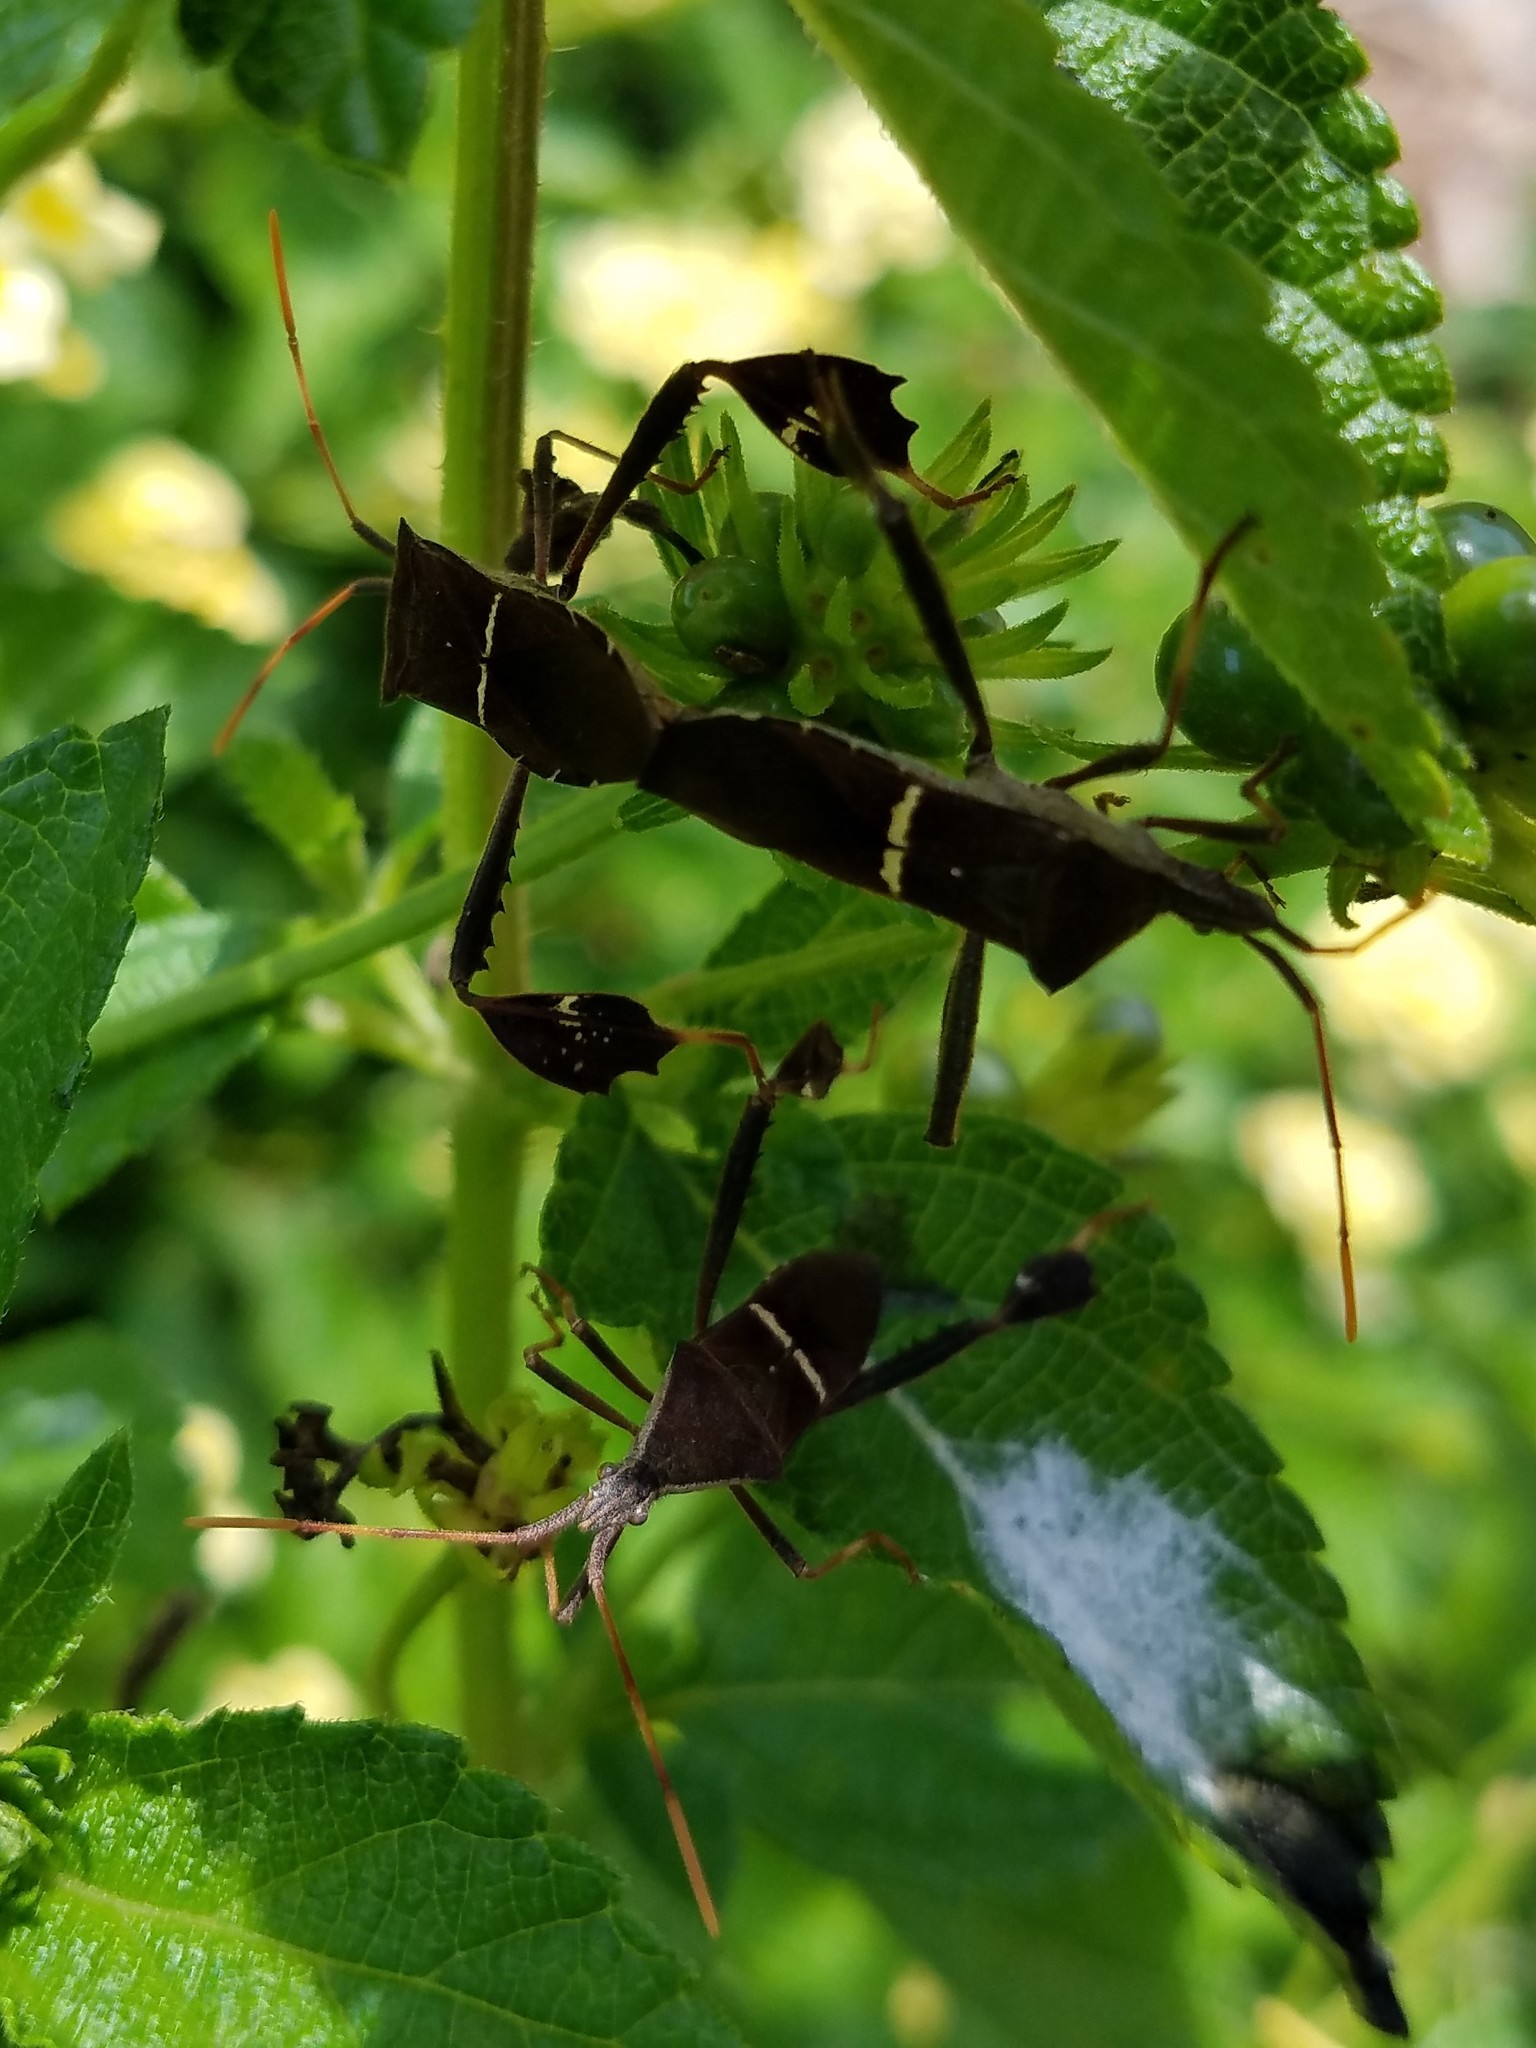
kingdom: Animalia
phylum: Arthropoda
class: Insecta
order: Hemiptera
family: Coreidae
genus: Leptoglossus
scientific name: Leptoglossus phyllopus
